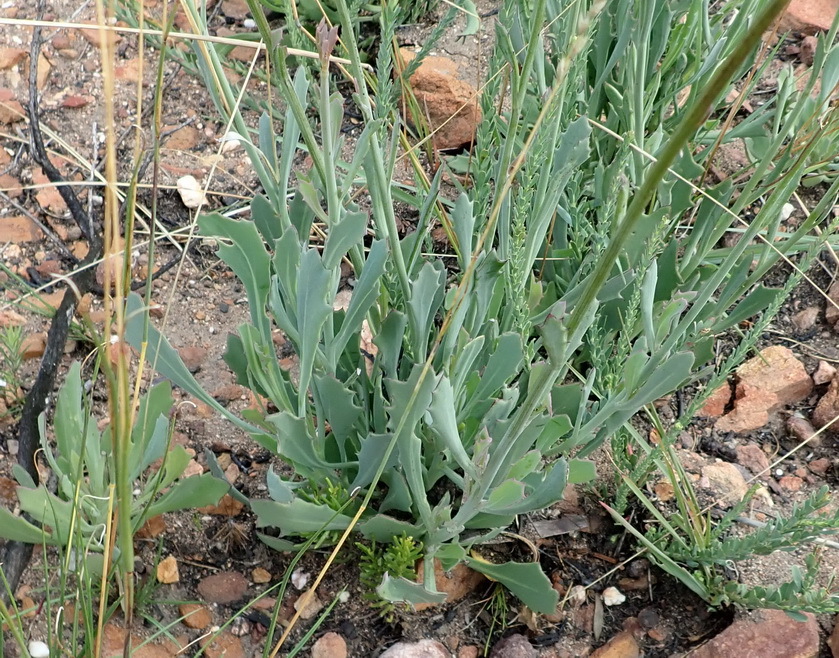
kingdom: Plantae
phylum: Tracheophyta
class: Magnoliopsida
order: Asterales
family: Asteraceae
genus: Othonna
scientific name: Othonna quinquedentata
